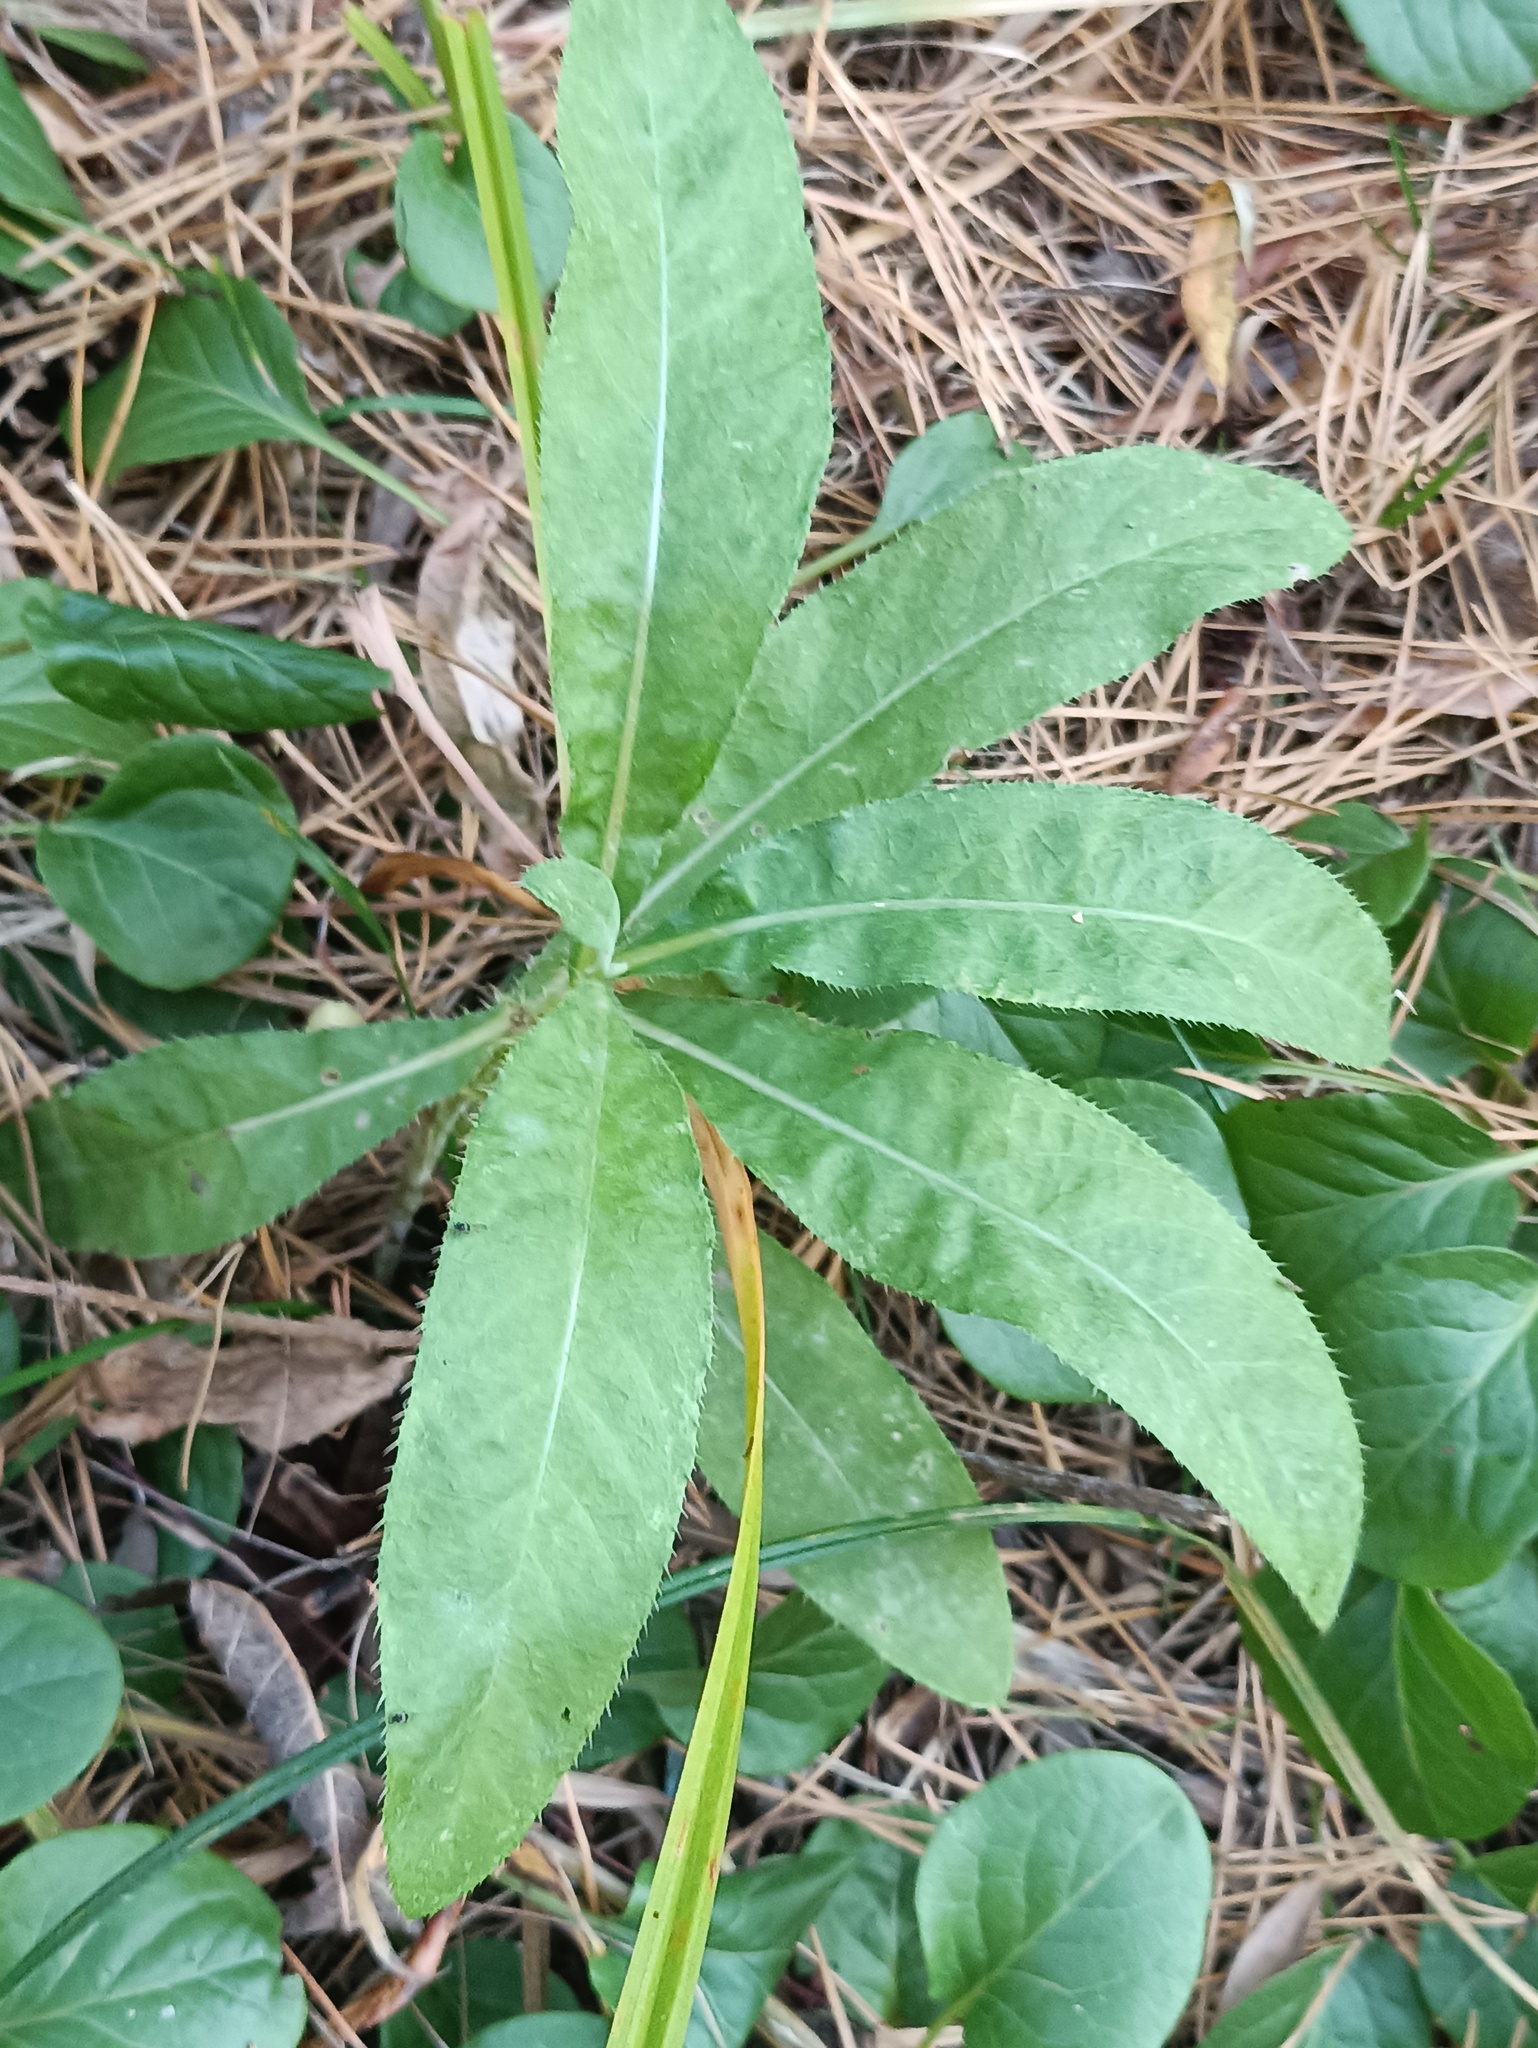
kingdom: Plantae
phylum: Tracheophyta
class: Magnoliopsida
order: Asterales
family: Asteraceae
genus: Cirsium
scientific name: Cirsium arvense
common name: Creeping thistle
